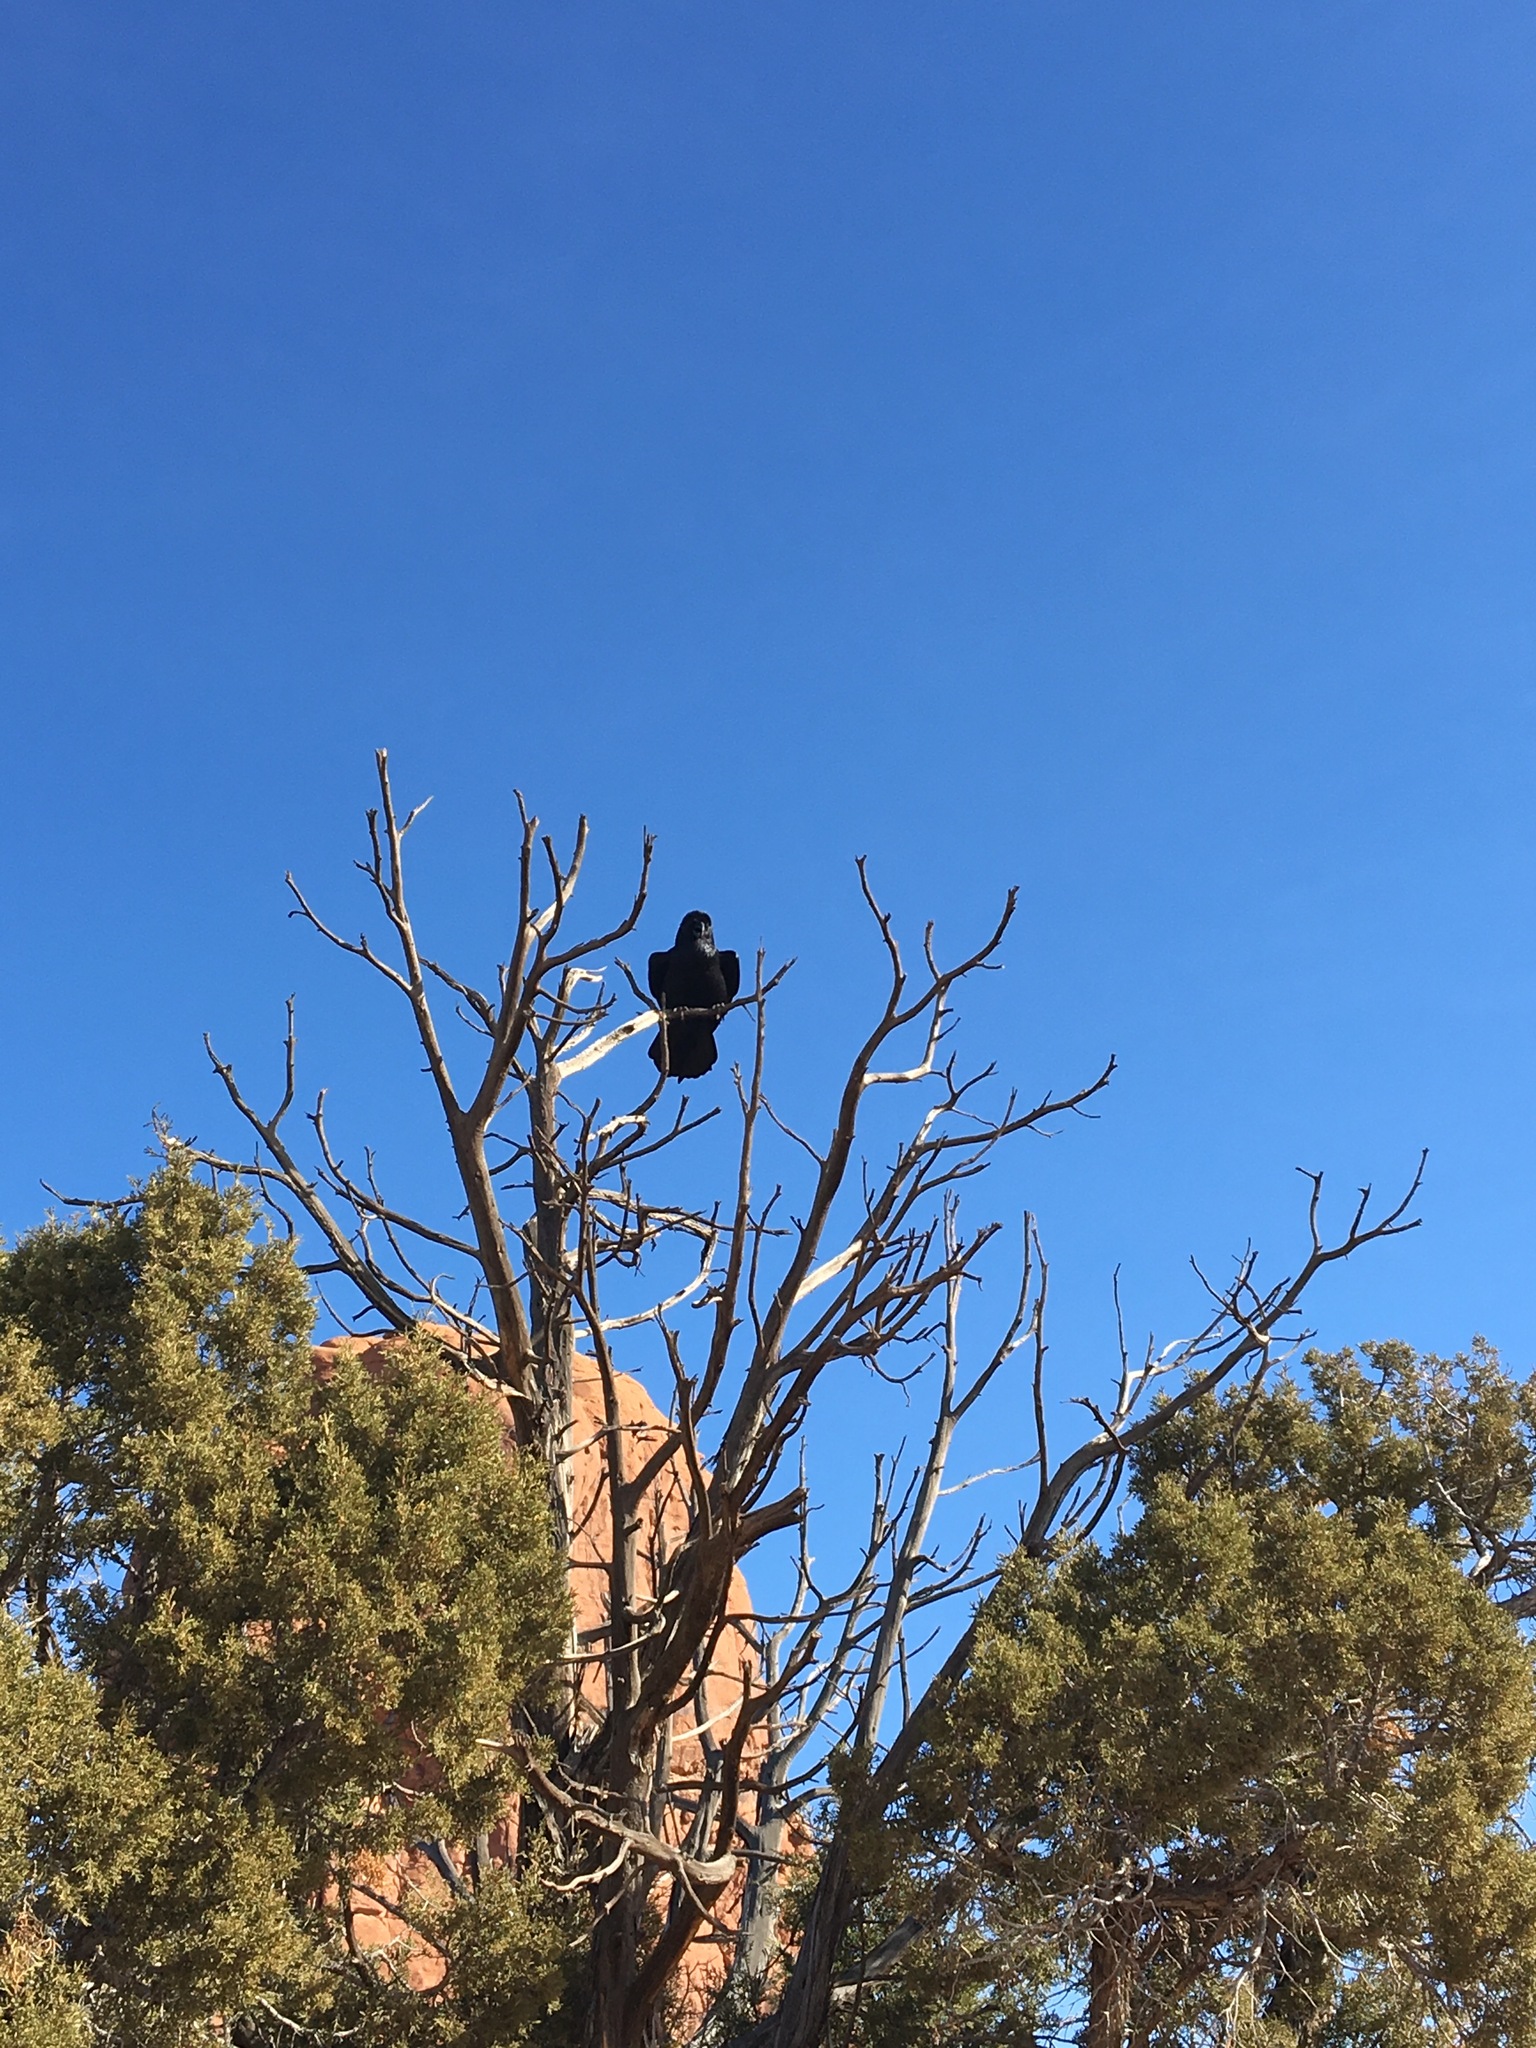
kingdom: Animalia
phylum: Chordata
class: Aves
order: Passeriformes
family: Corvidae
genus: Corvus
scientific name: Corvus corax
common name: Common raven
